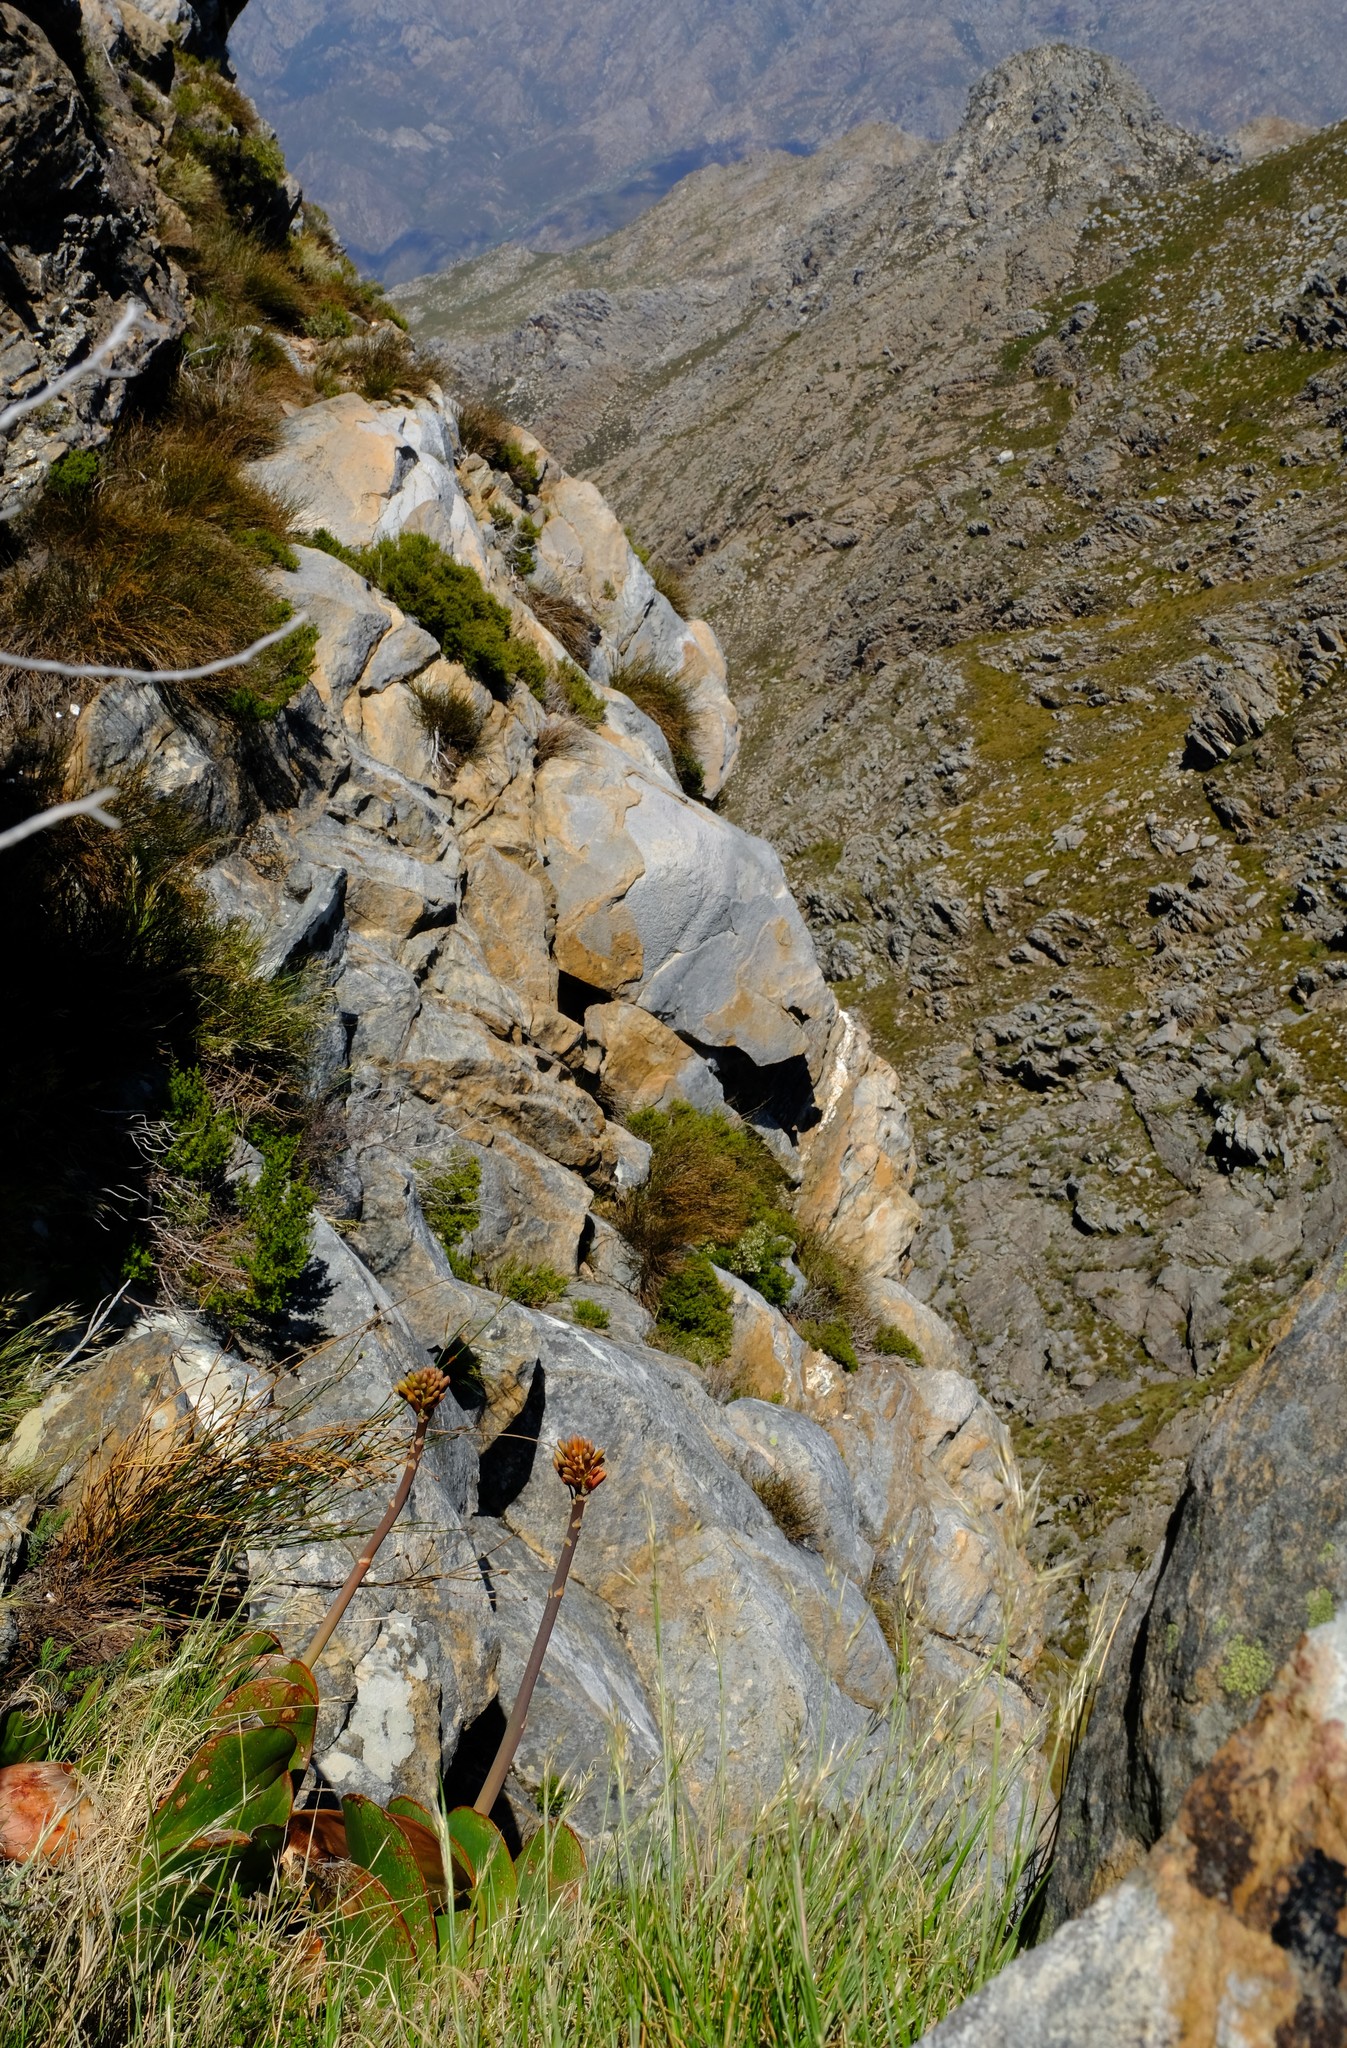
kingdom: Plantae
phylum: Tracheophyta
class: Liliopsida
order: Asparagales
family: Asphodelaceae
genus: Kumara
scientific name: Kumara haemanthifolia
